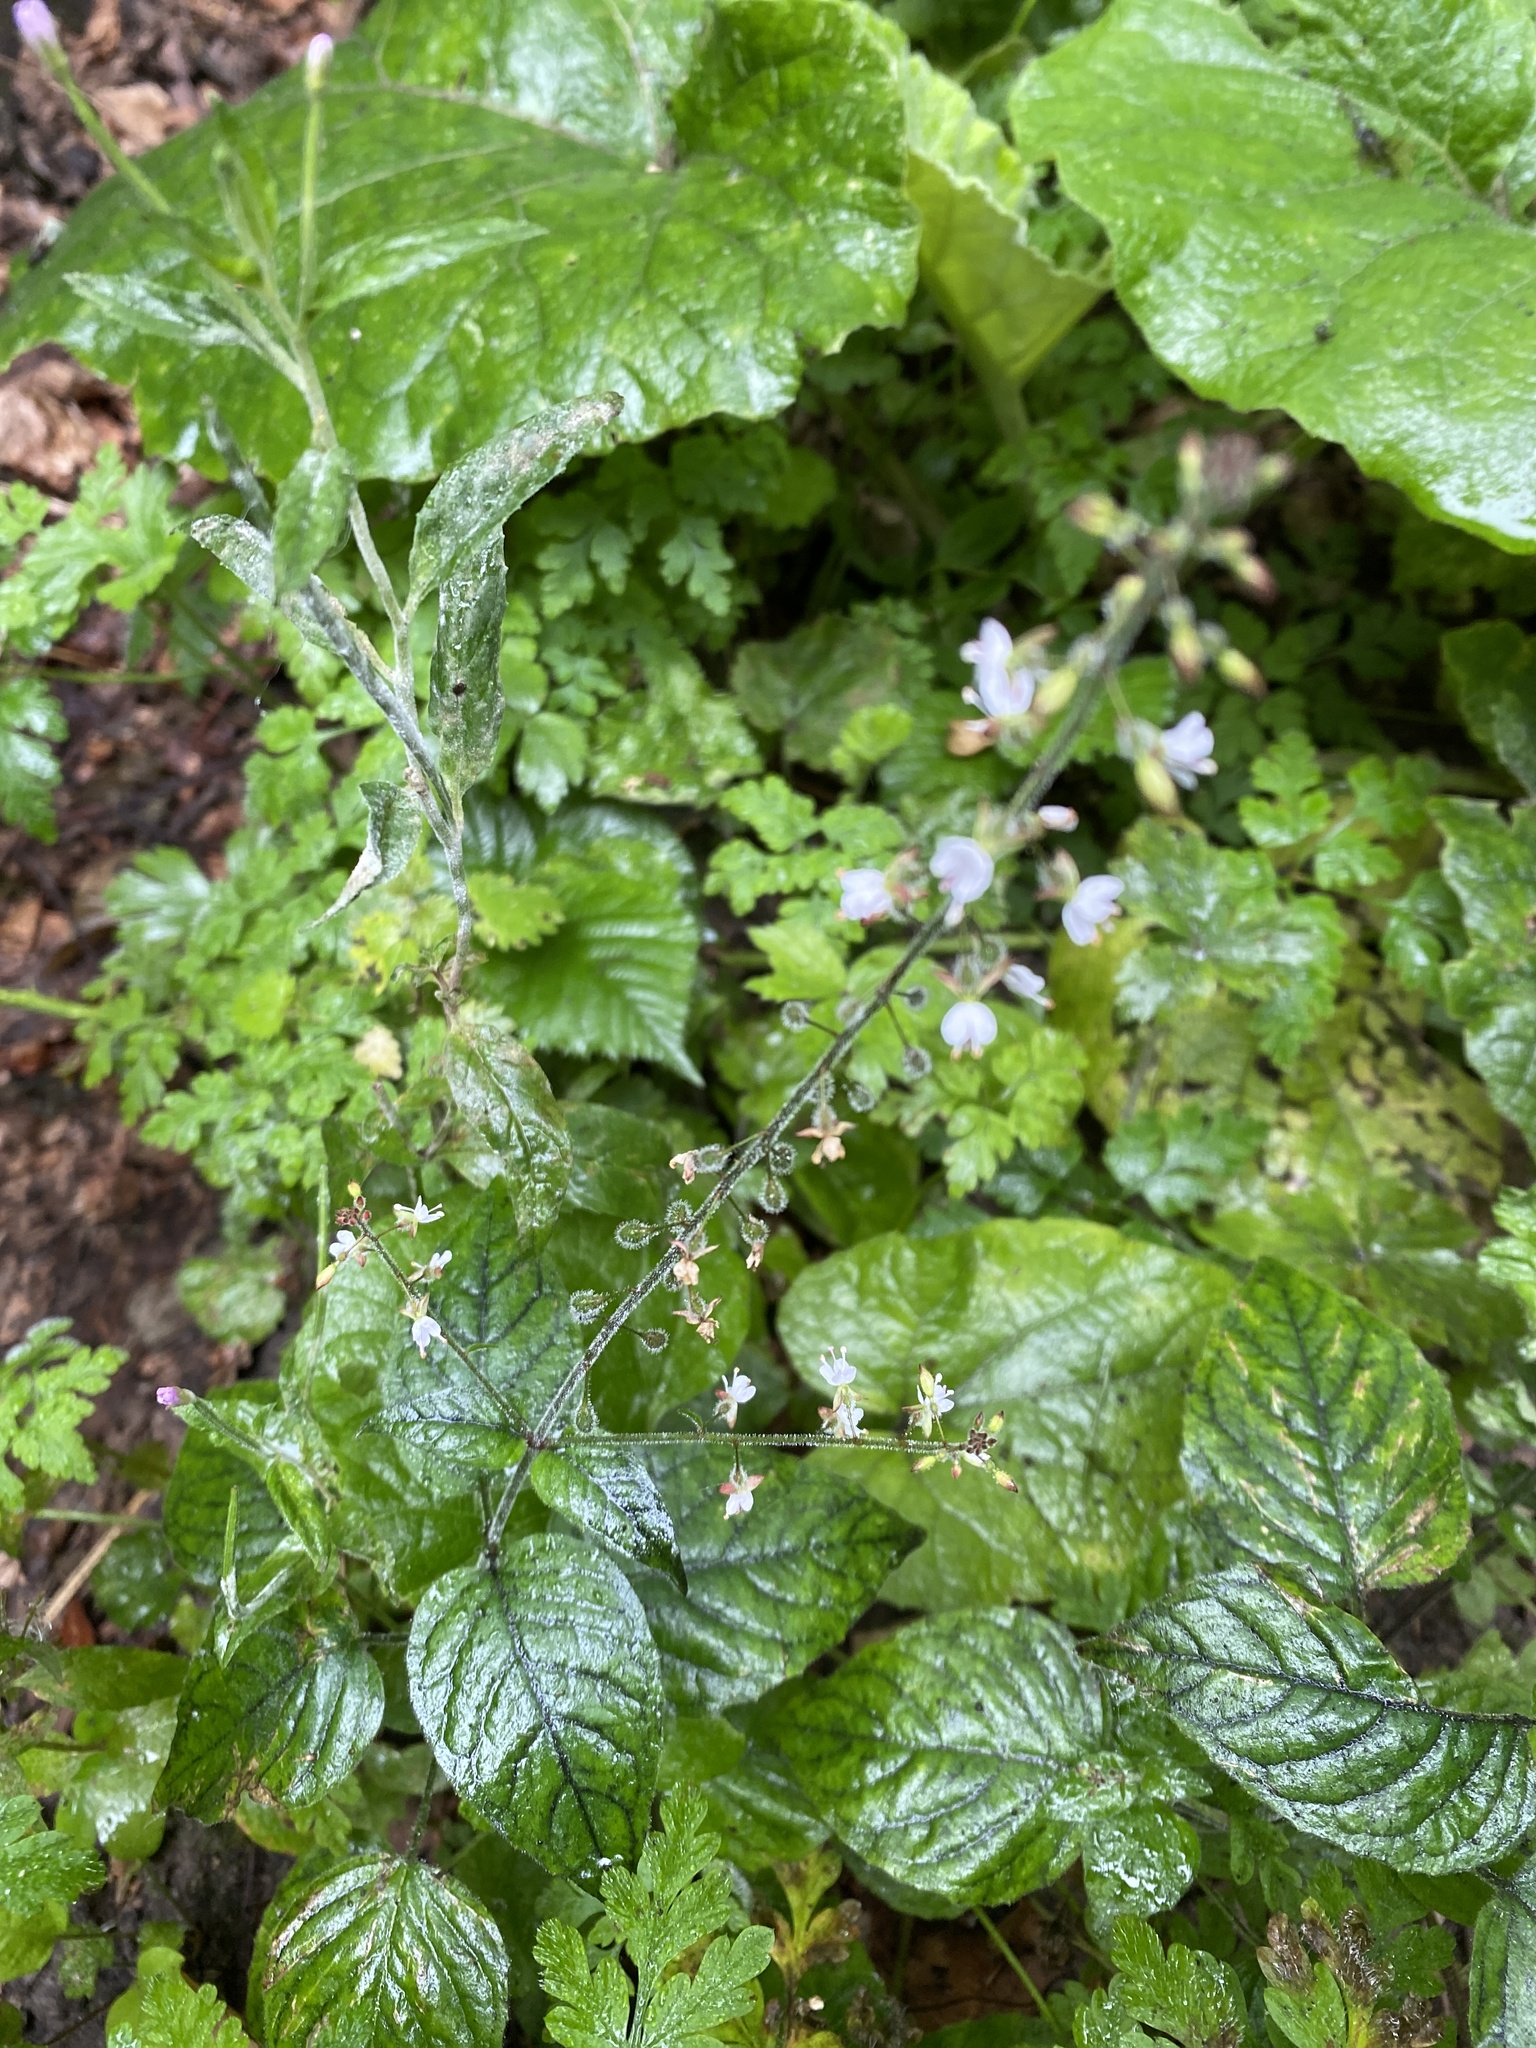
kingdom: Plantae
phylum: Tracheophyta
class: Magnoliopsida
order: Myrtales
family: Onagraceae
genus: Circaea
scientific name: Circaea lutetiana
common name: Enchanter's-nightshade
